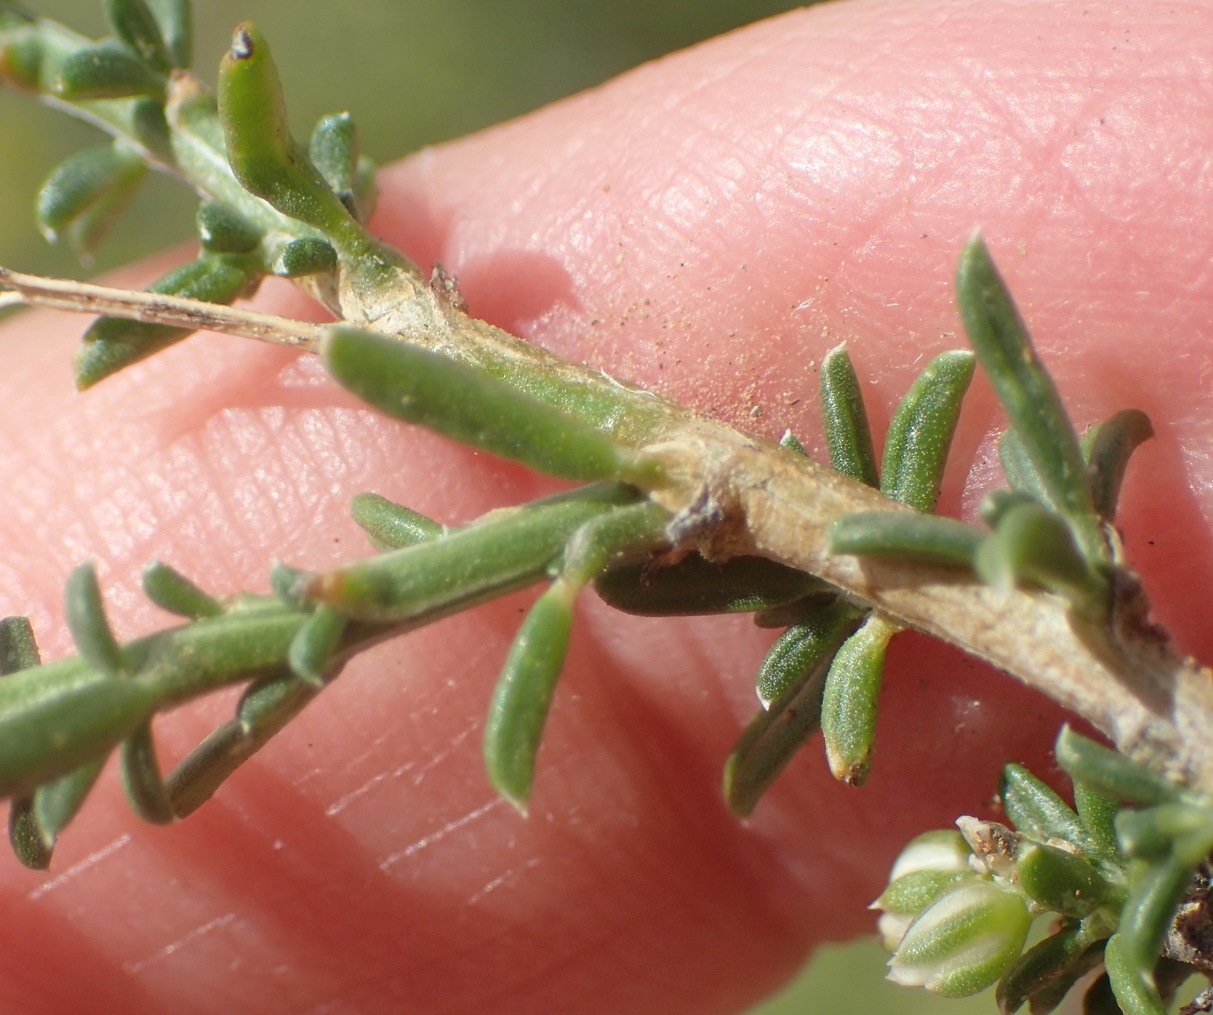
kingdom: Plantae
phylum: Tracheophyta
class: Magnoliopsida
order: Caryophyllales
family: Limeaceae
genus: Limeum
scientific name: Limeum aethiopicum
